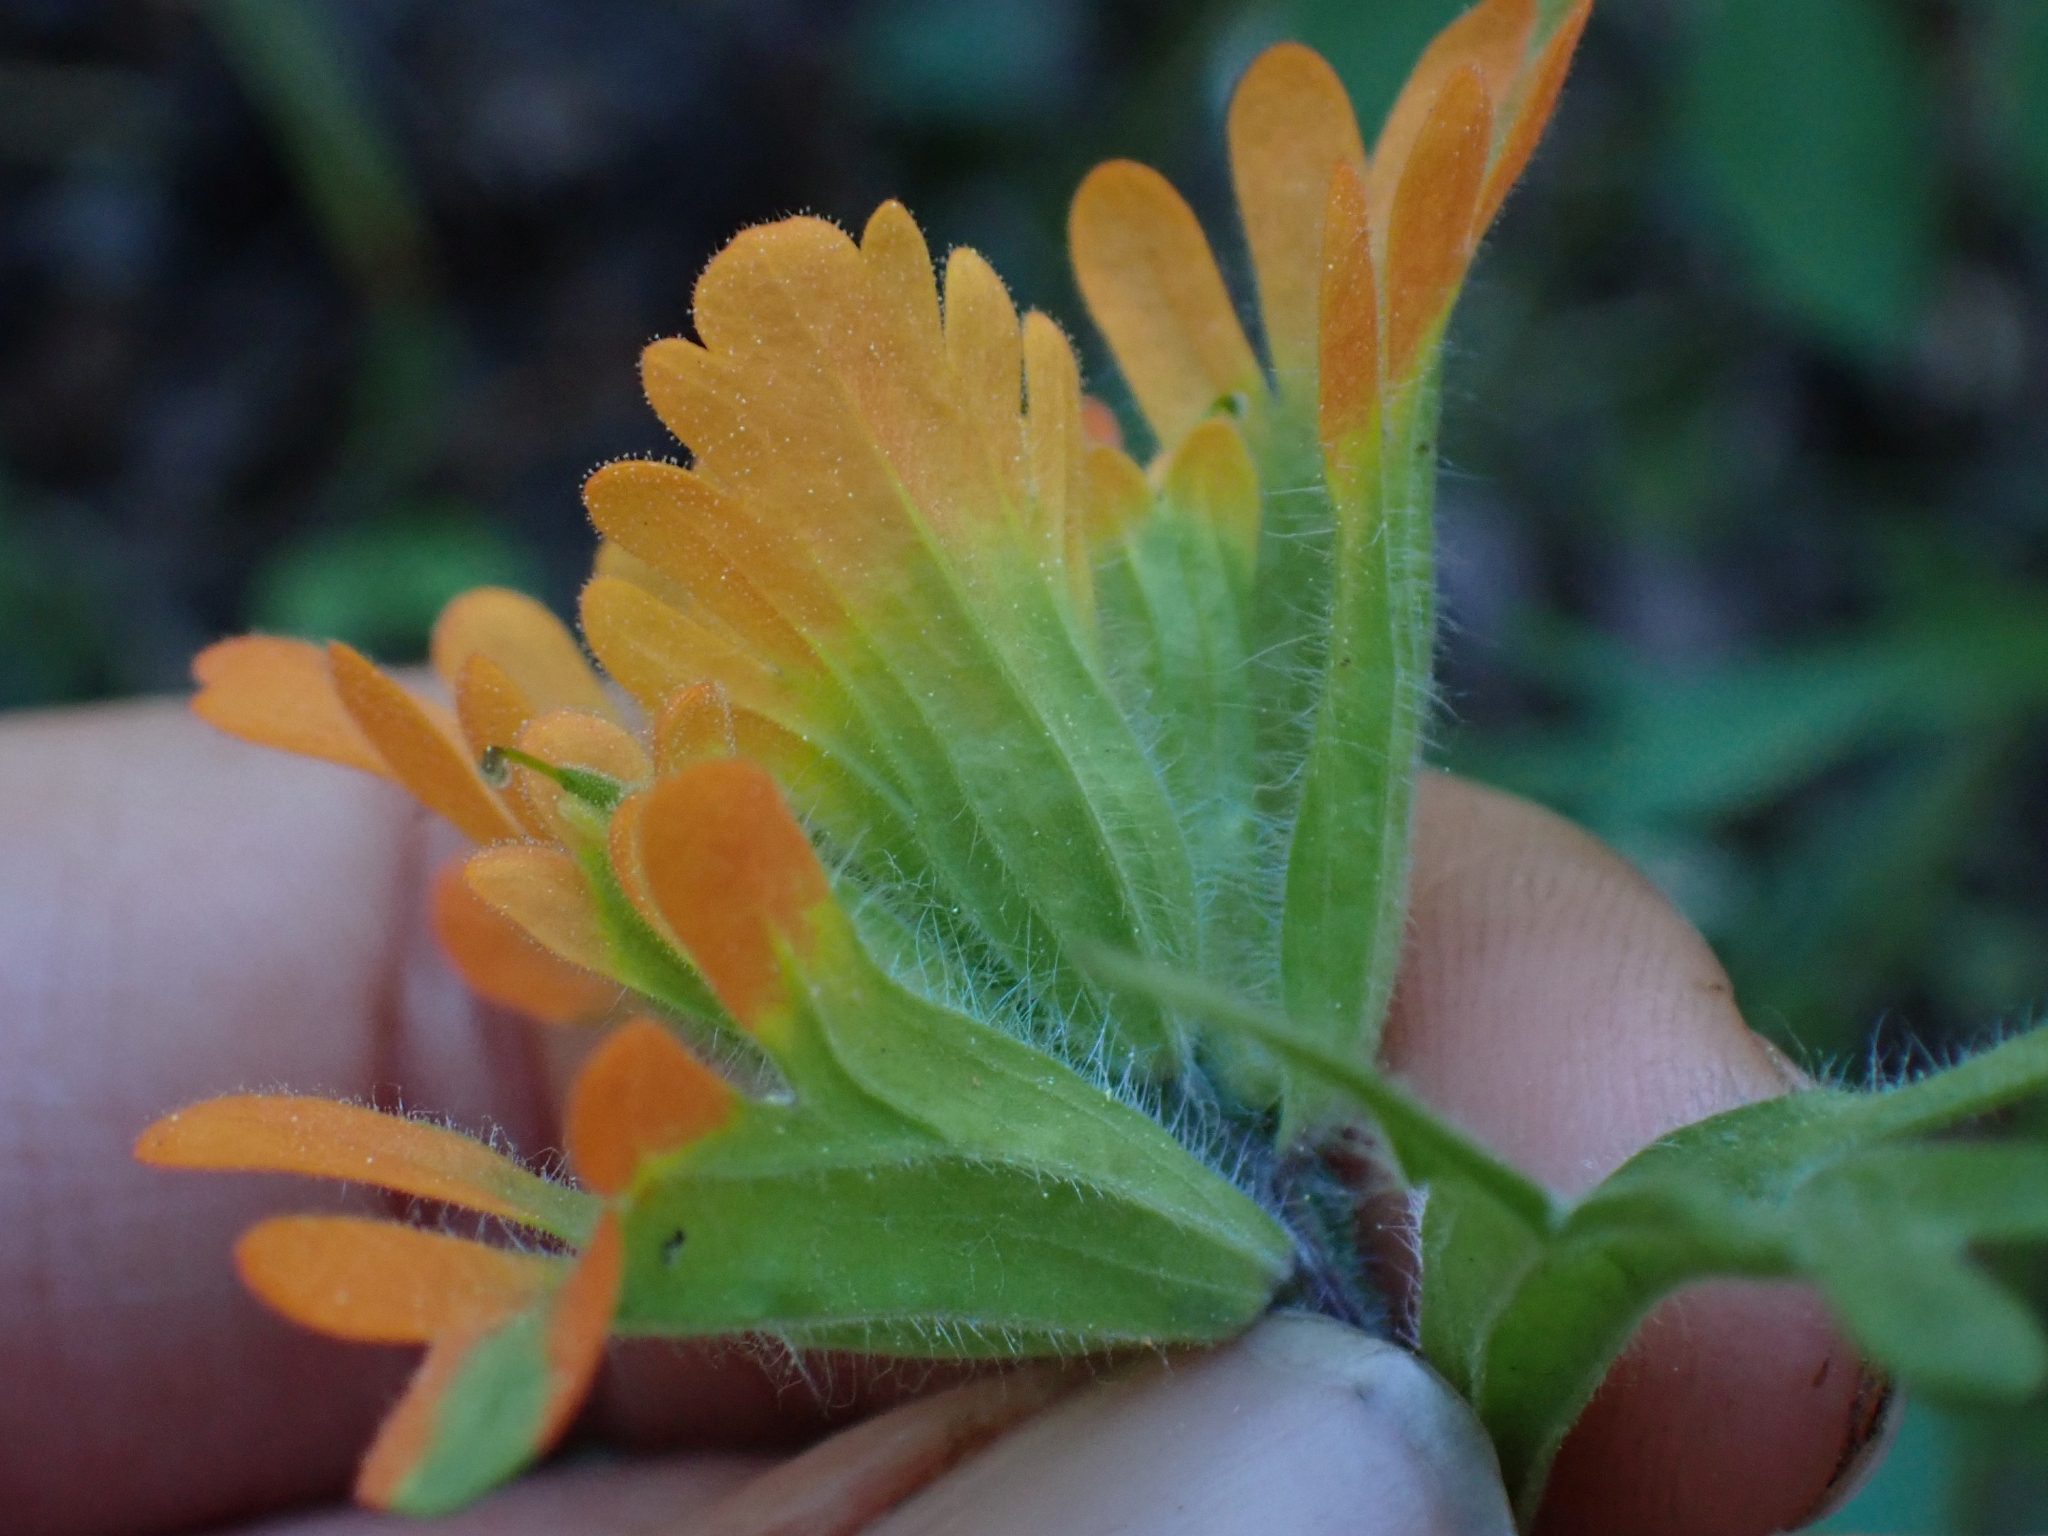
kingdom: Plantae
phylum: Tracheophyta
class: Magnoliopsida
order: Lamiales
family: Orobanchaceae
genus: Castilleja
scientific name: Castilleja hispida
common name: Bristly paintbrush
